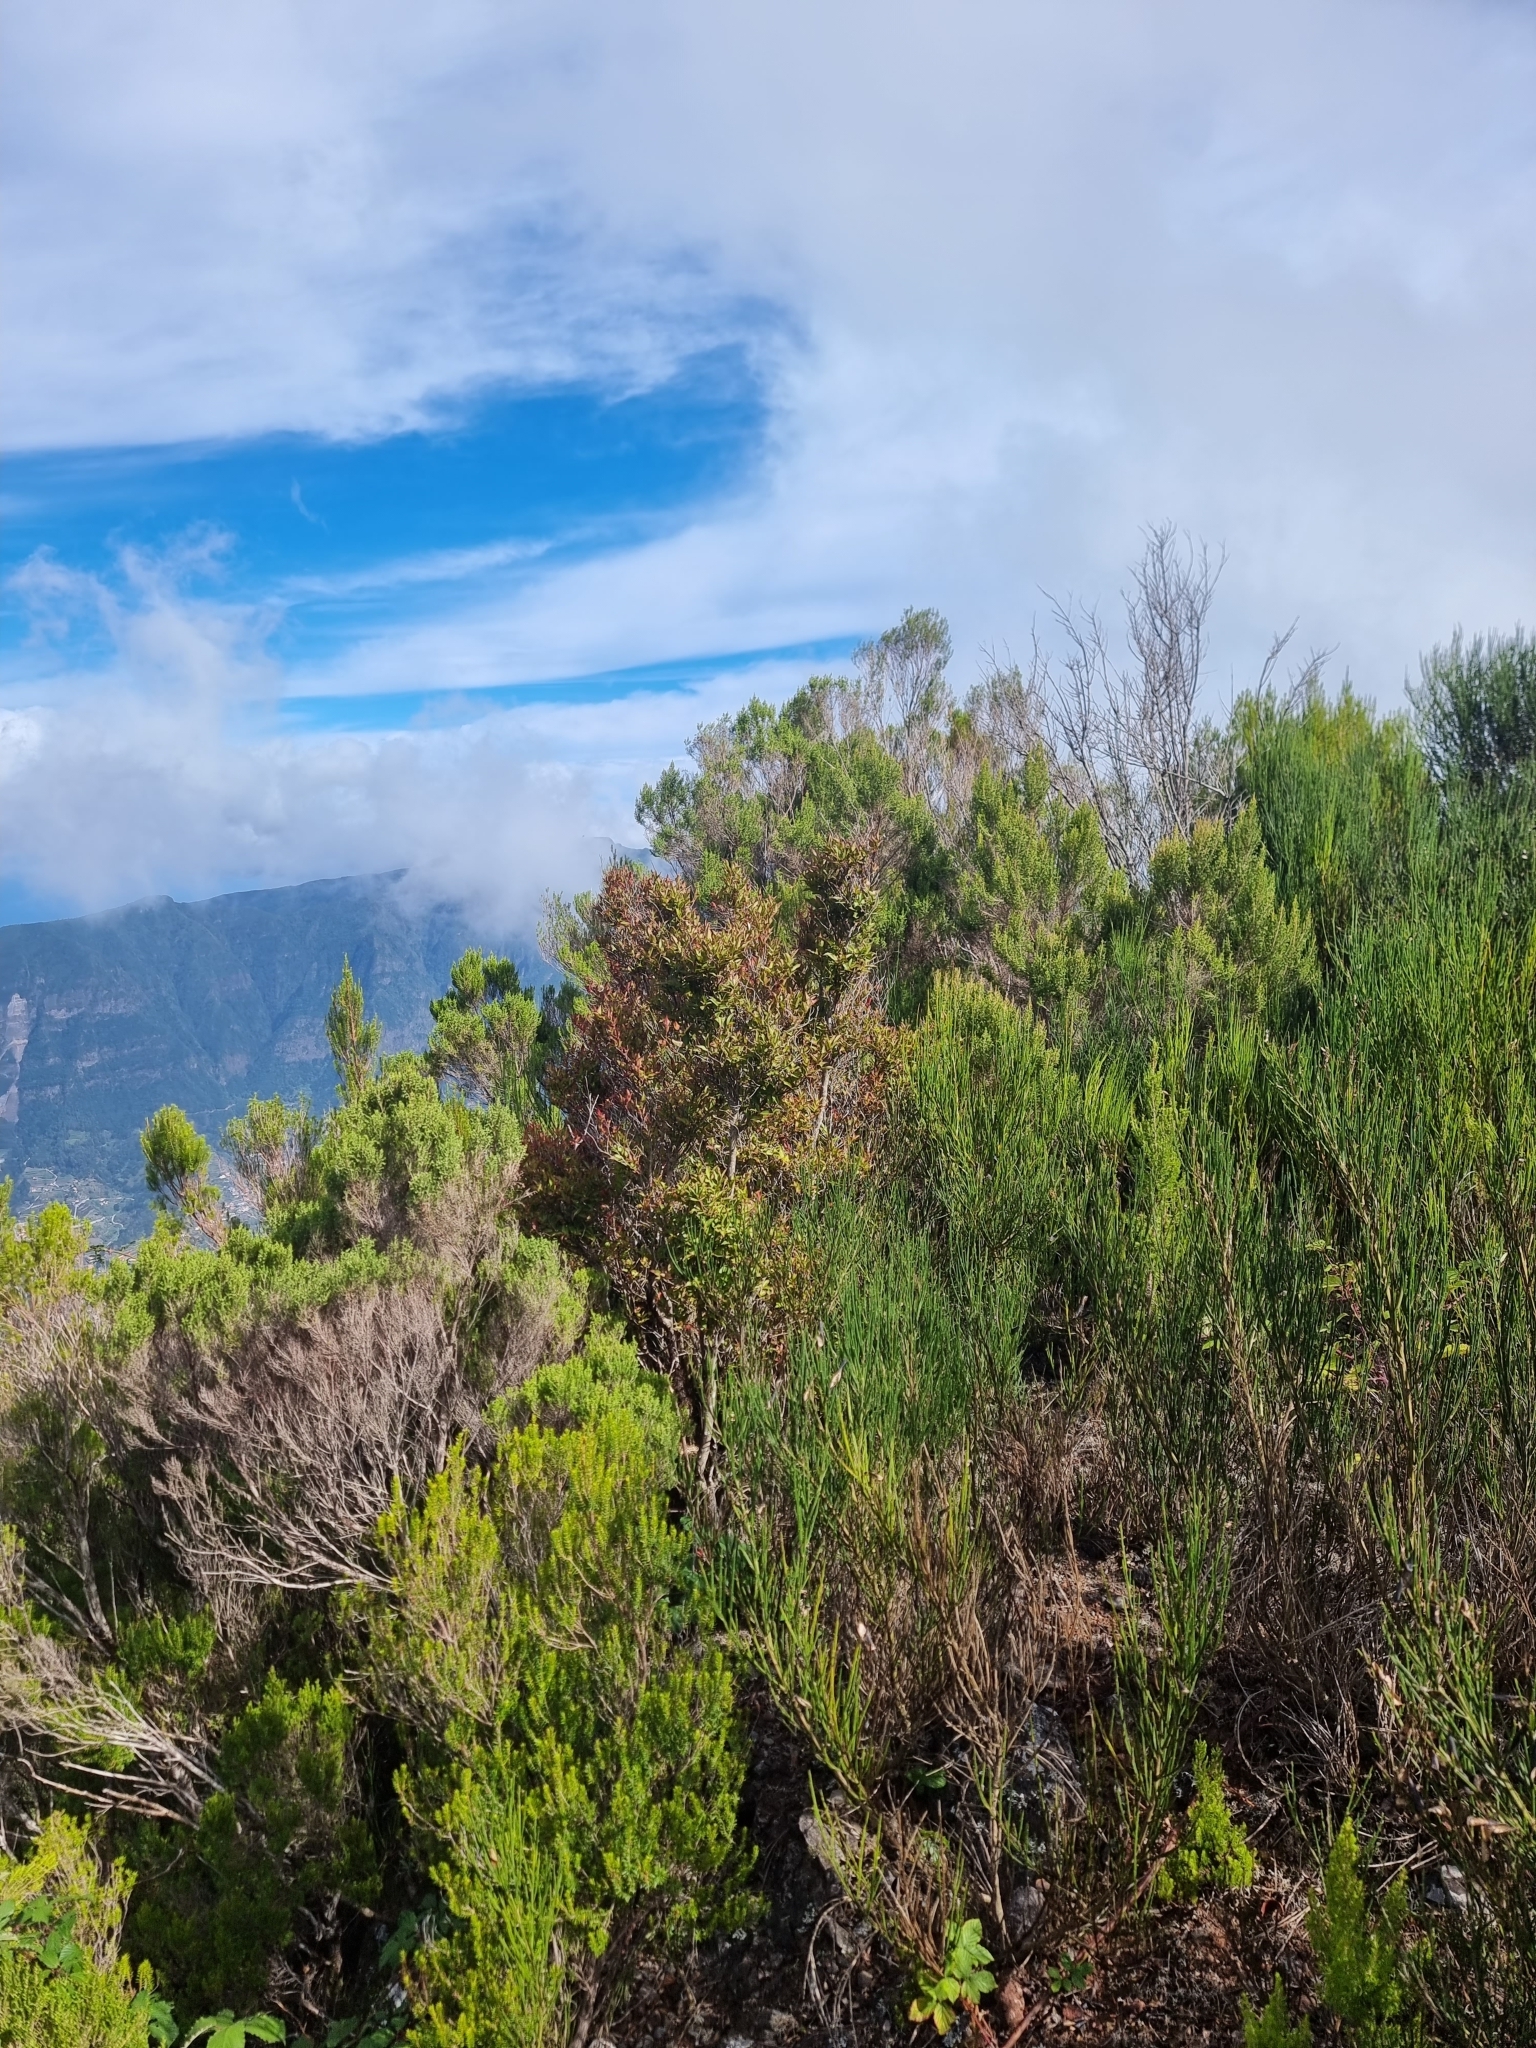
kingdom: Plantae
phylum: Tracheophyta
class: Magnoliopsida
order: Ericales
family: Ericaceae
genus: Vaccinium
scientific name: Vaccinium padifolium
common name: Madeiran blueberry
